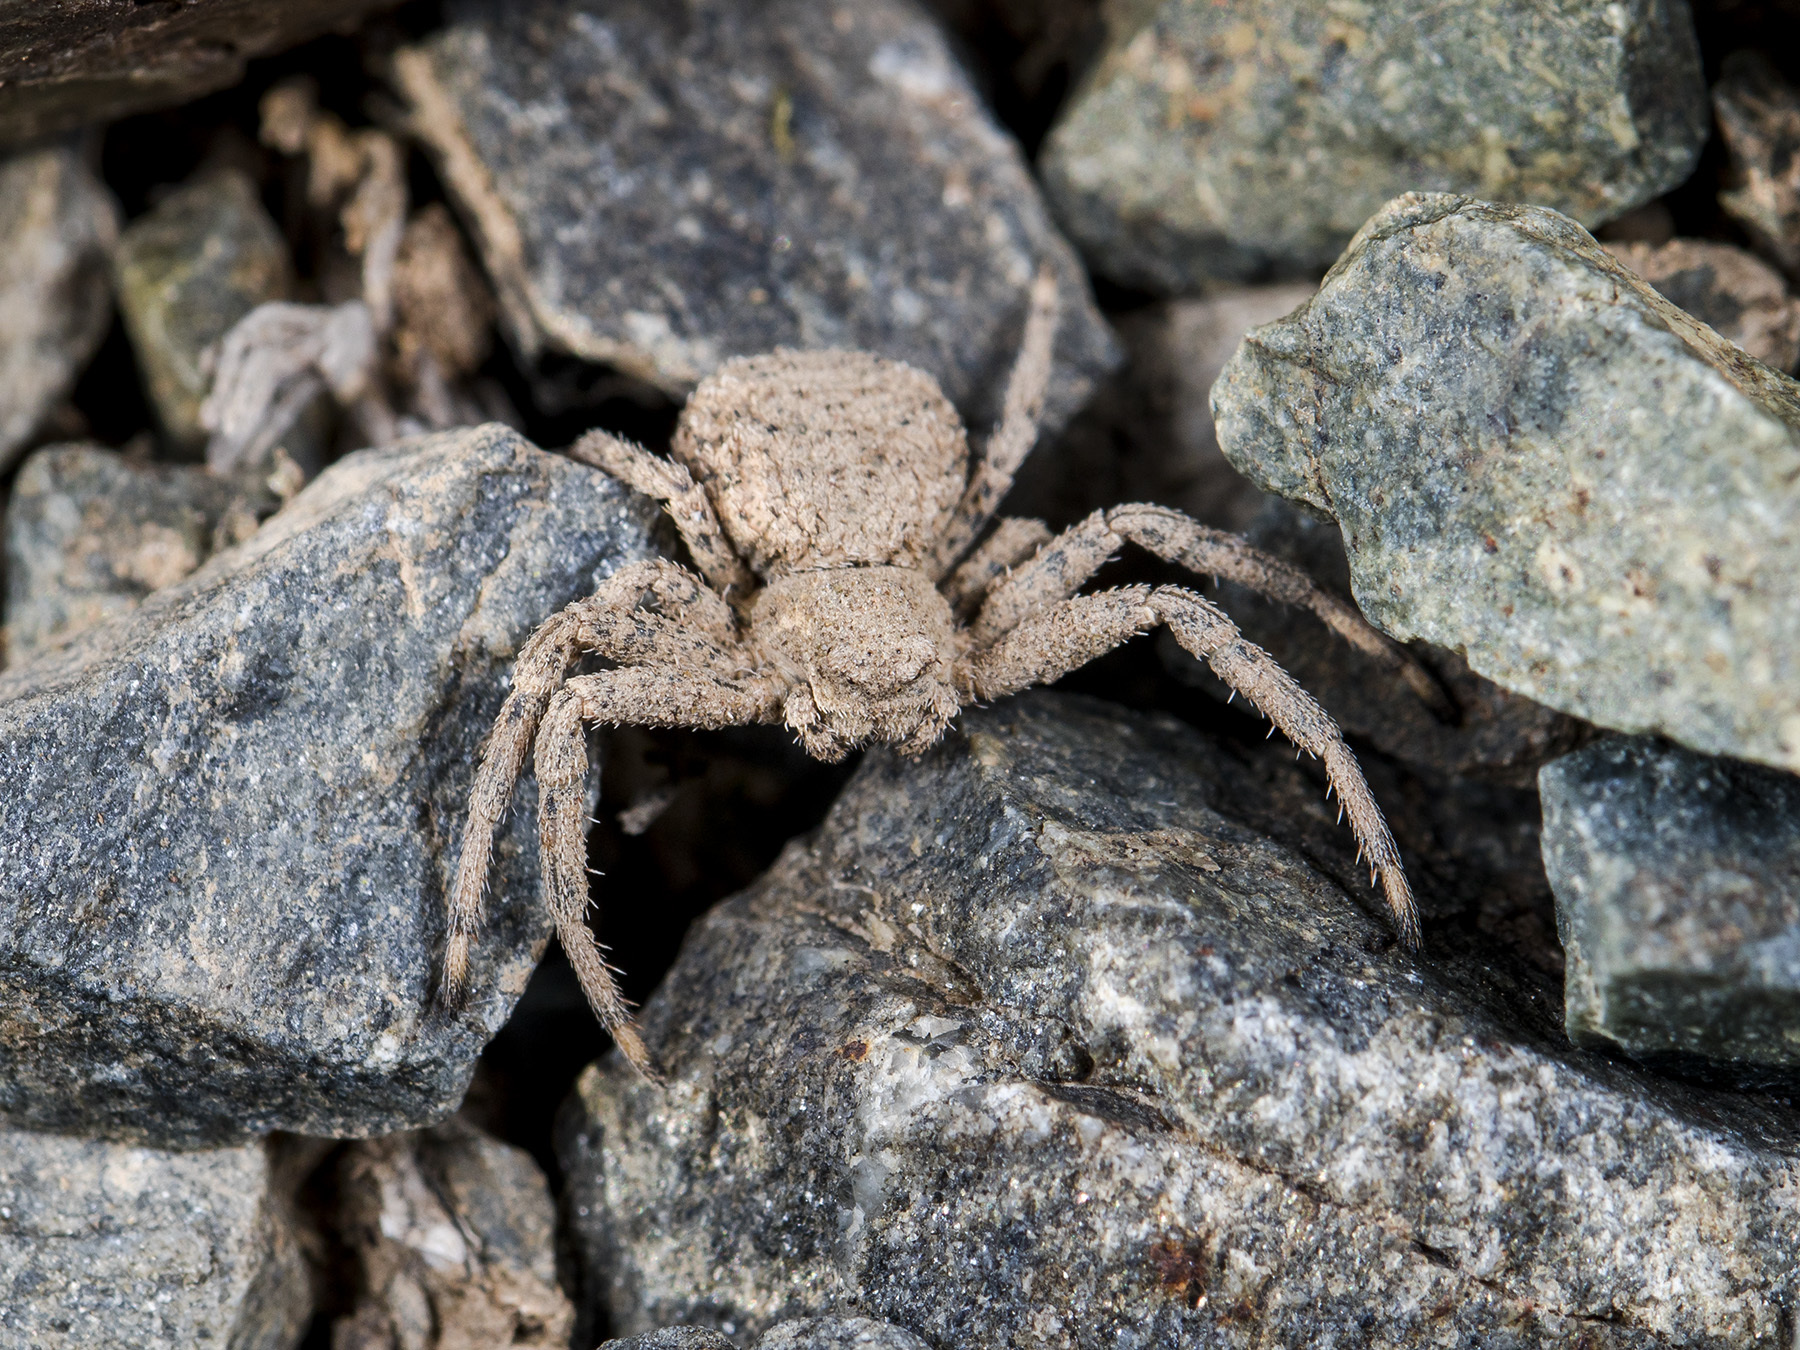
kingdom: Animalia
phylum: Arthropoda
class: Arachnida
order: Araneae
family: Thomisidae
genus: Ozyptila
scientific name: Ozyptila tuberosa
